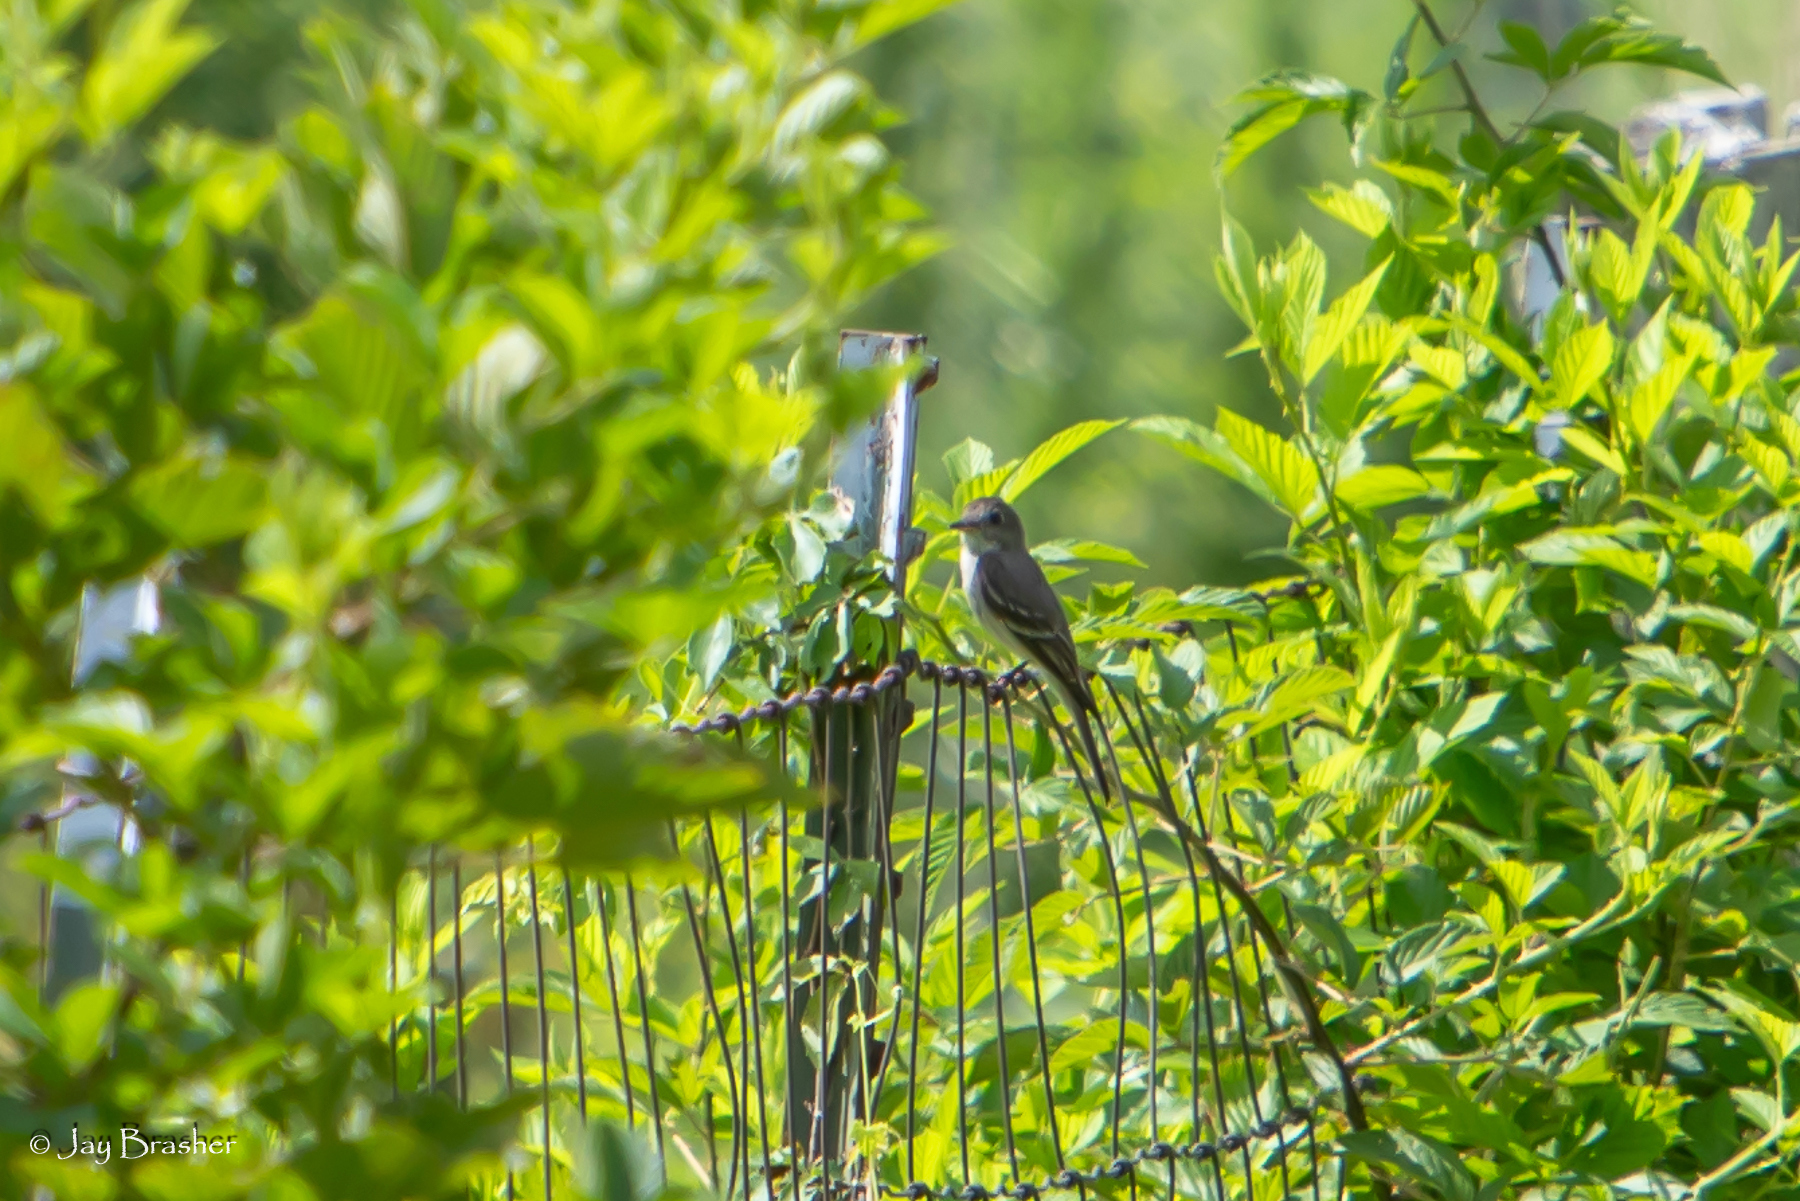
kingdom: Animalia
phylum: Chordata
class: Aves
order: Passeriformes
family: Tyrannidae
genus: Contopus
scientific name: Contopus virens
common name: Eastern wood-pewee
